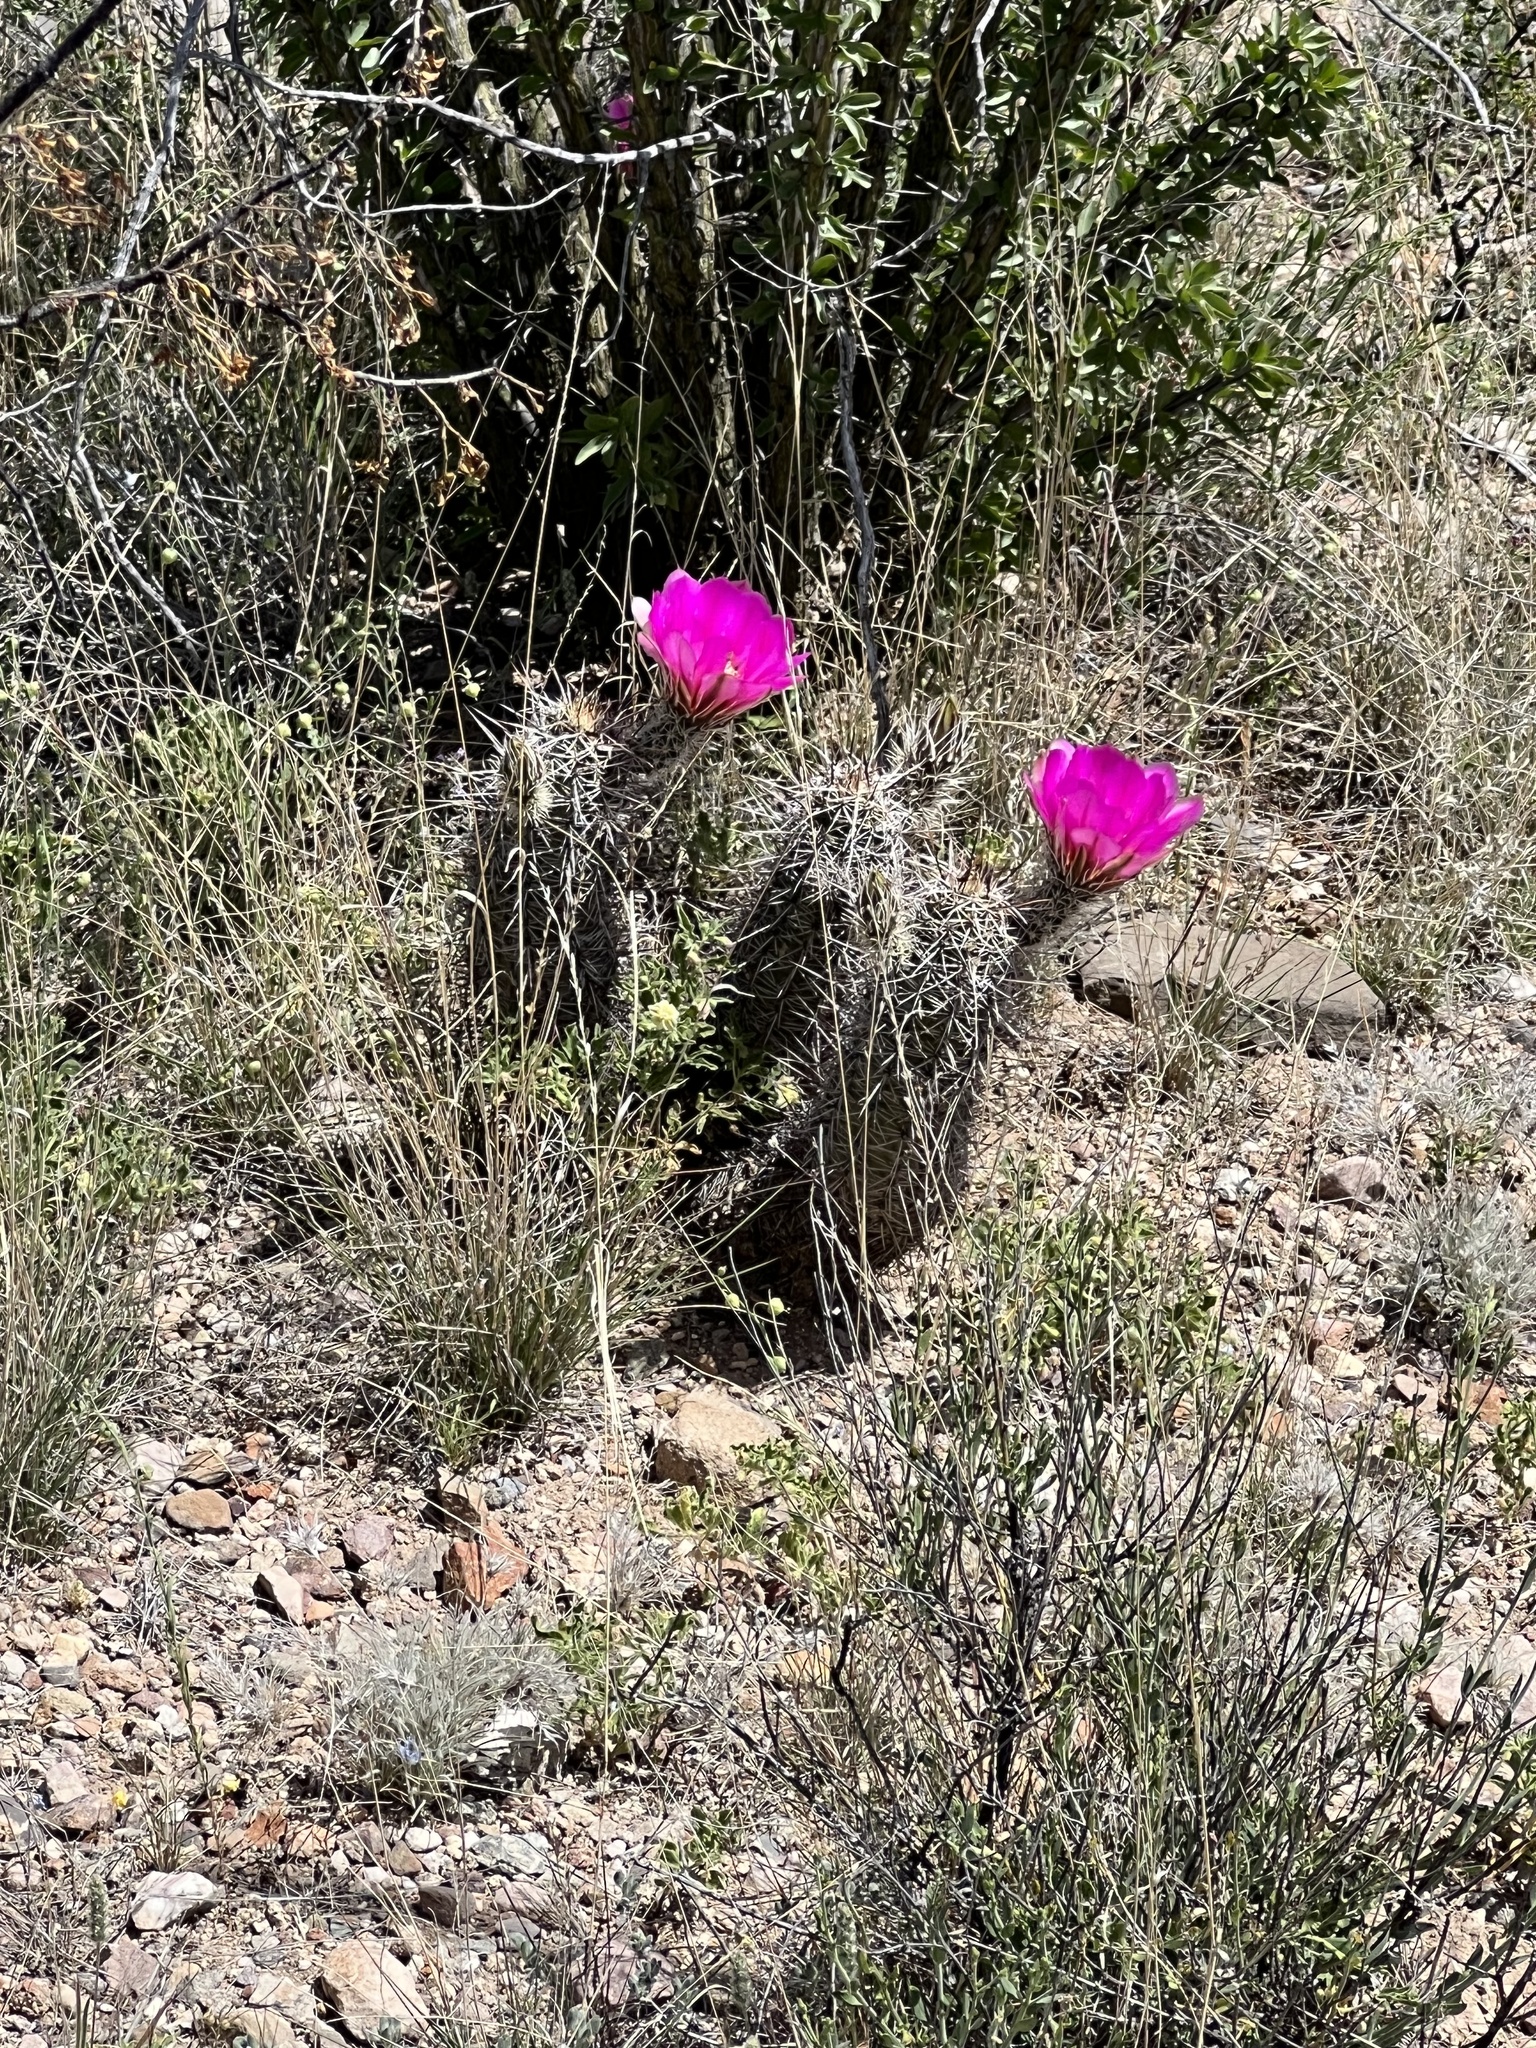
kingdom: Plantae
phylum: Tracheophyta
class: Magnoliopsida
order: Caryophyllales
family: Cactaceae
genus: Echinocereus
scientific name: Echinocereus fasciculatus
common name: Bundle hedgehog
